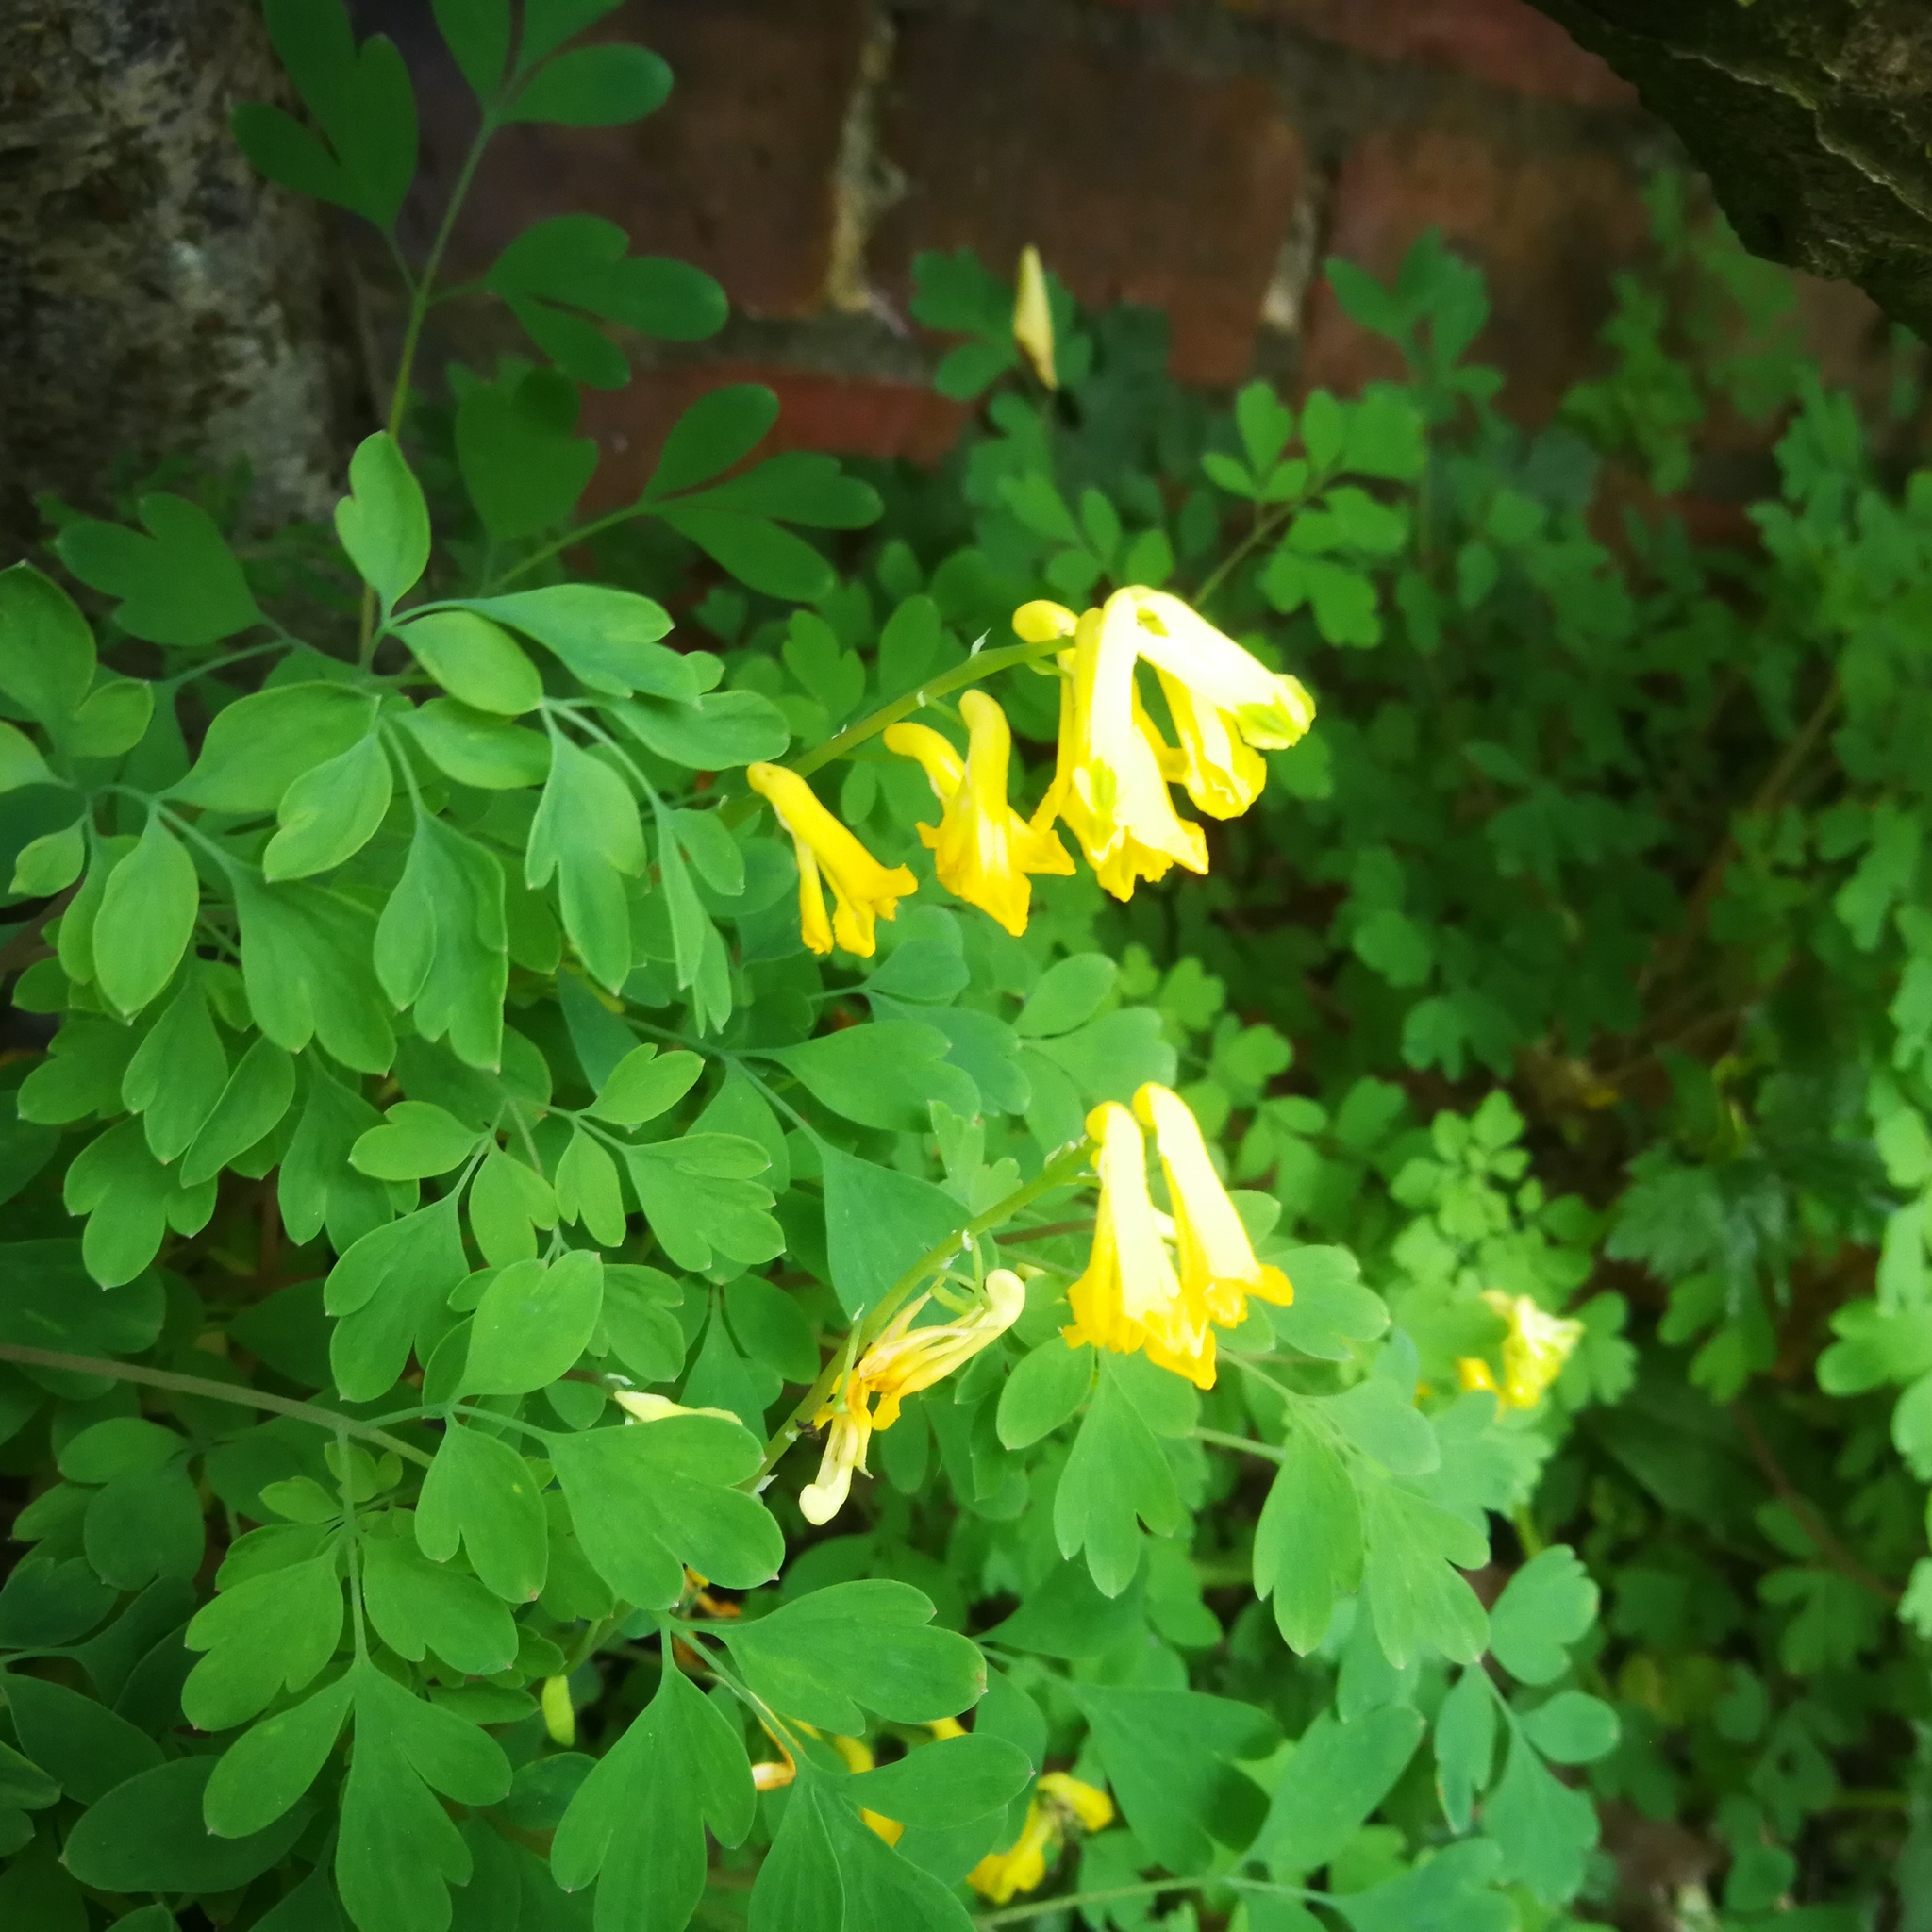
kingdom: Plantae
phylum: Tracheophyta
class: Magnoliopsida
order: Ranunculales
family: Papaveraceae
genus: Pseudofumaria
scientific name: Pseudofumaria lutea
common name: Yellow corydalis
